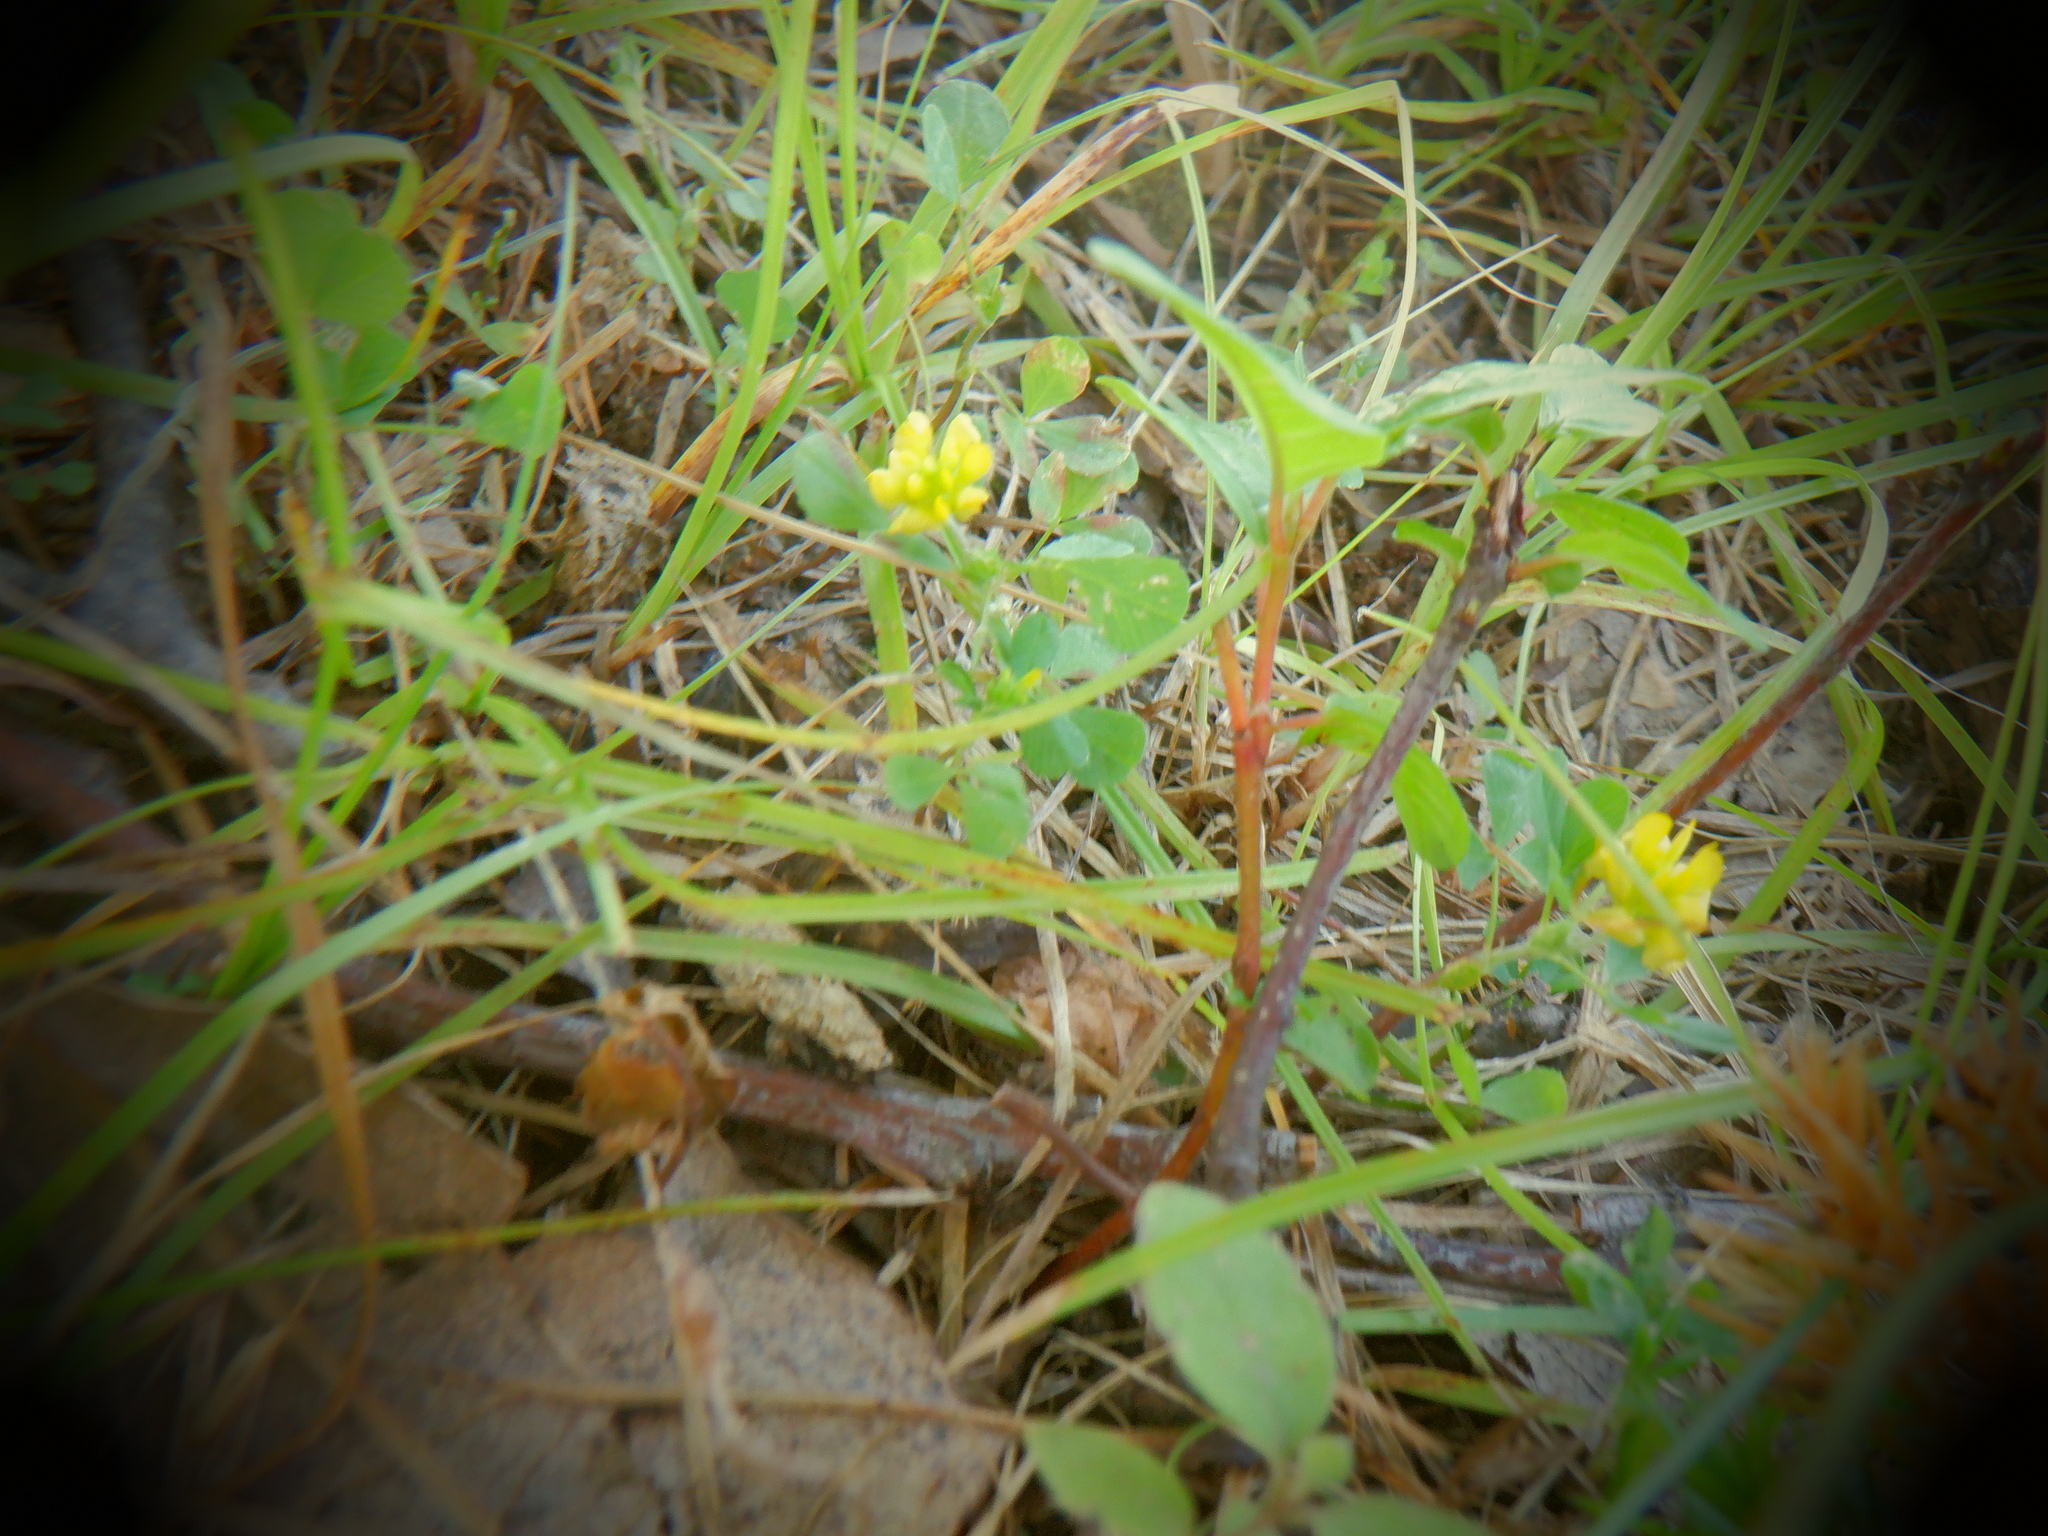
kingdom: Plantae
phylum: Tracheophyta
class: Magnoliopsida
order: Fabales
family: Fabaceae
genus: Trifolium
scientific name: Trifolium campestre
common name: Field clover
